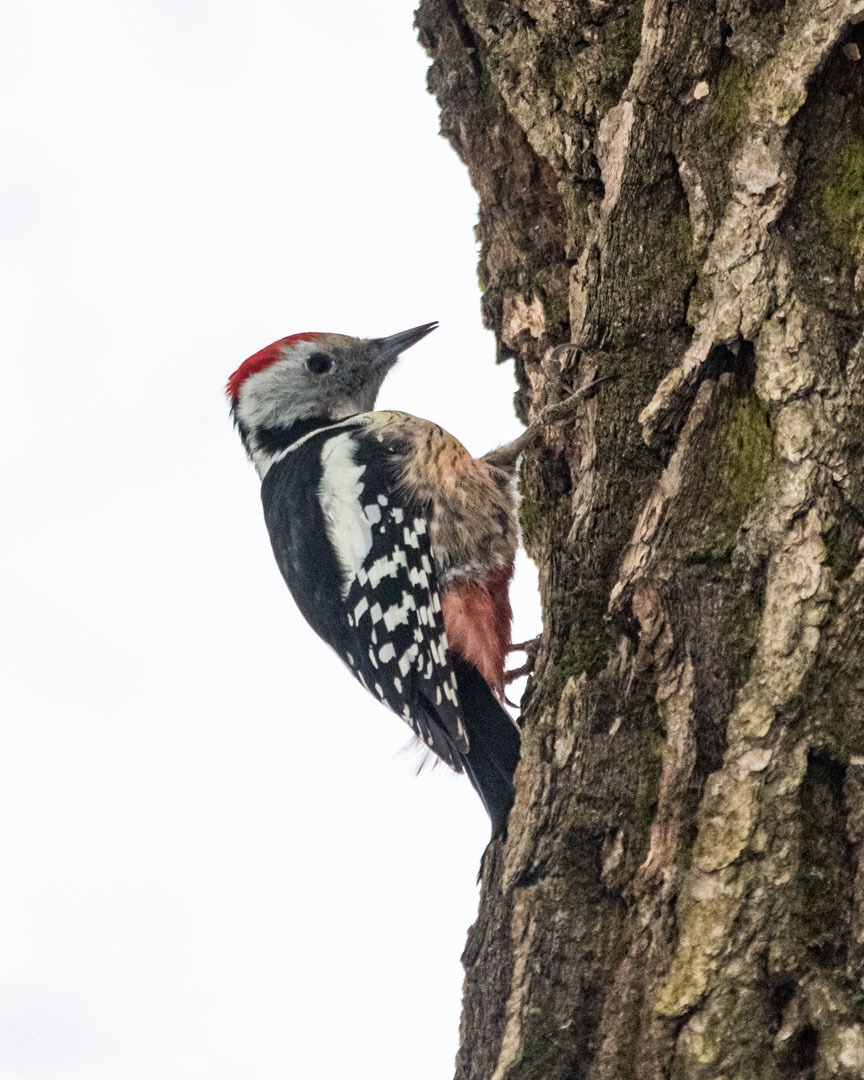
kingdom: Animalia
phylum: Chordata
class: Aves
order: Piciformes
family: Picidae
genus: Dendrocoptes
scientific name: Dendrocoptes medius
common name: Middle spotted woodpecker
